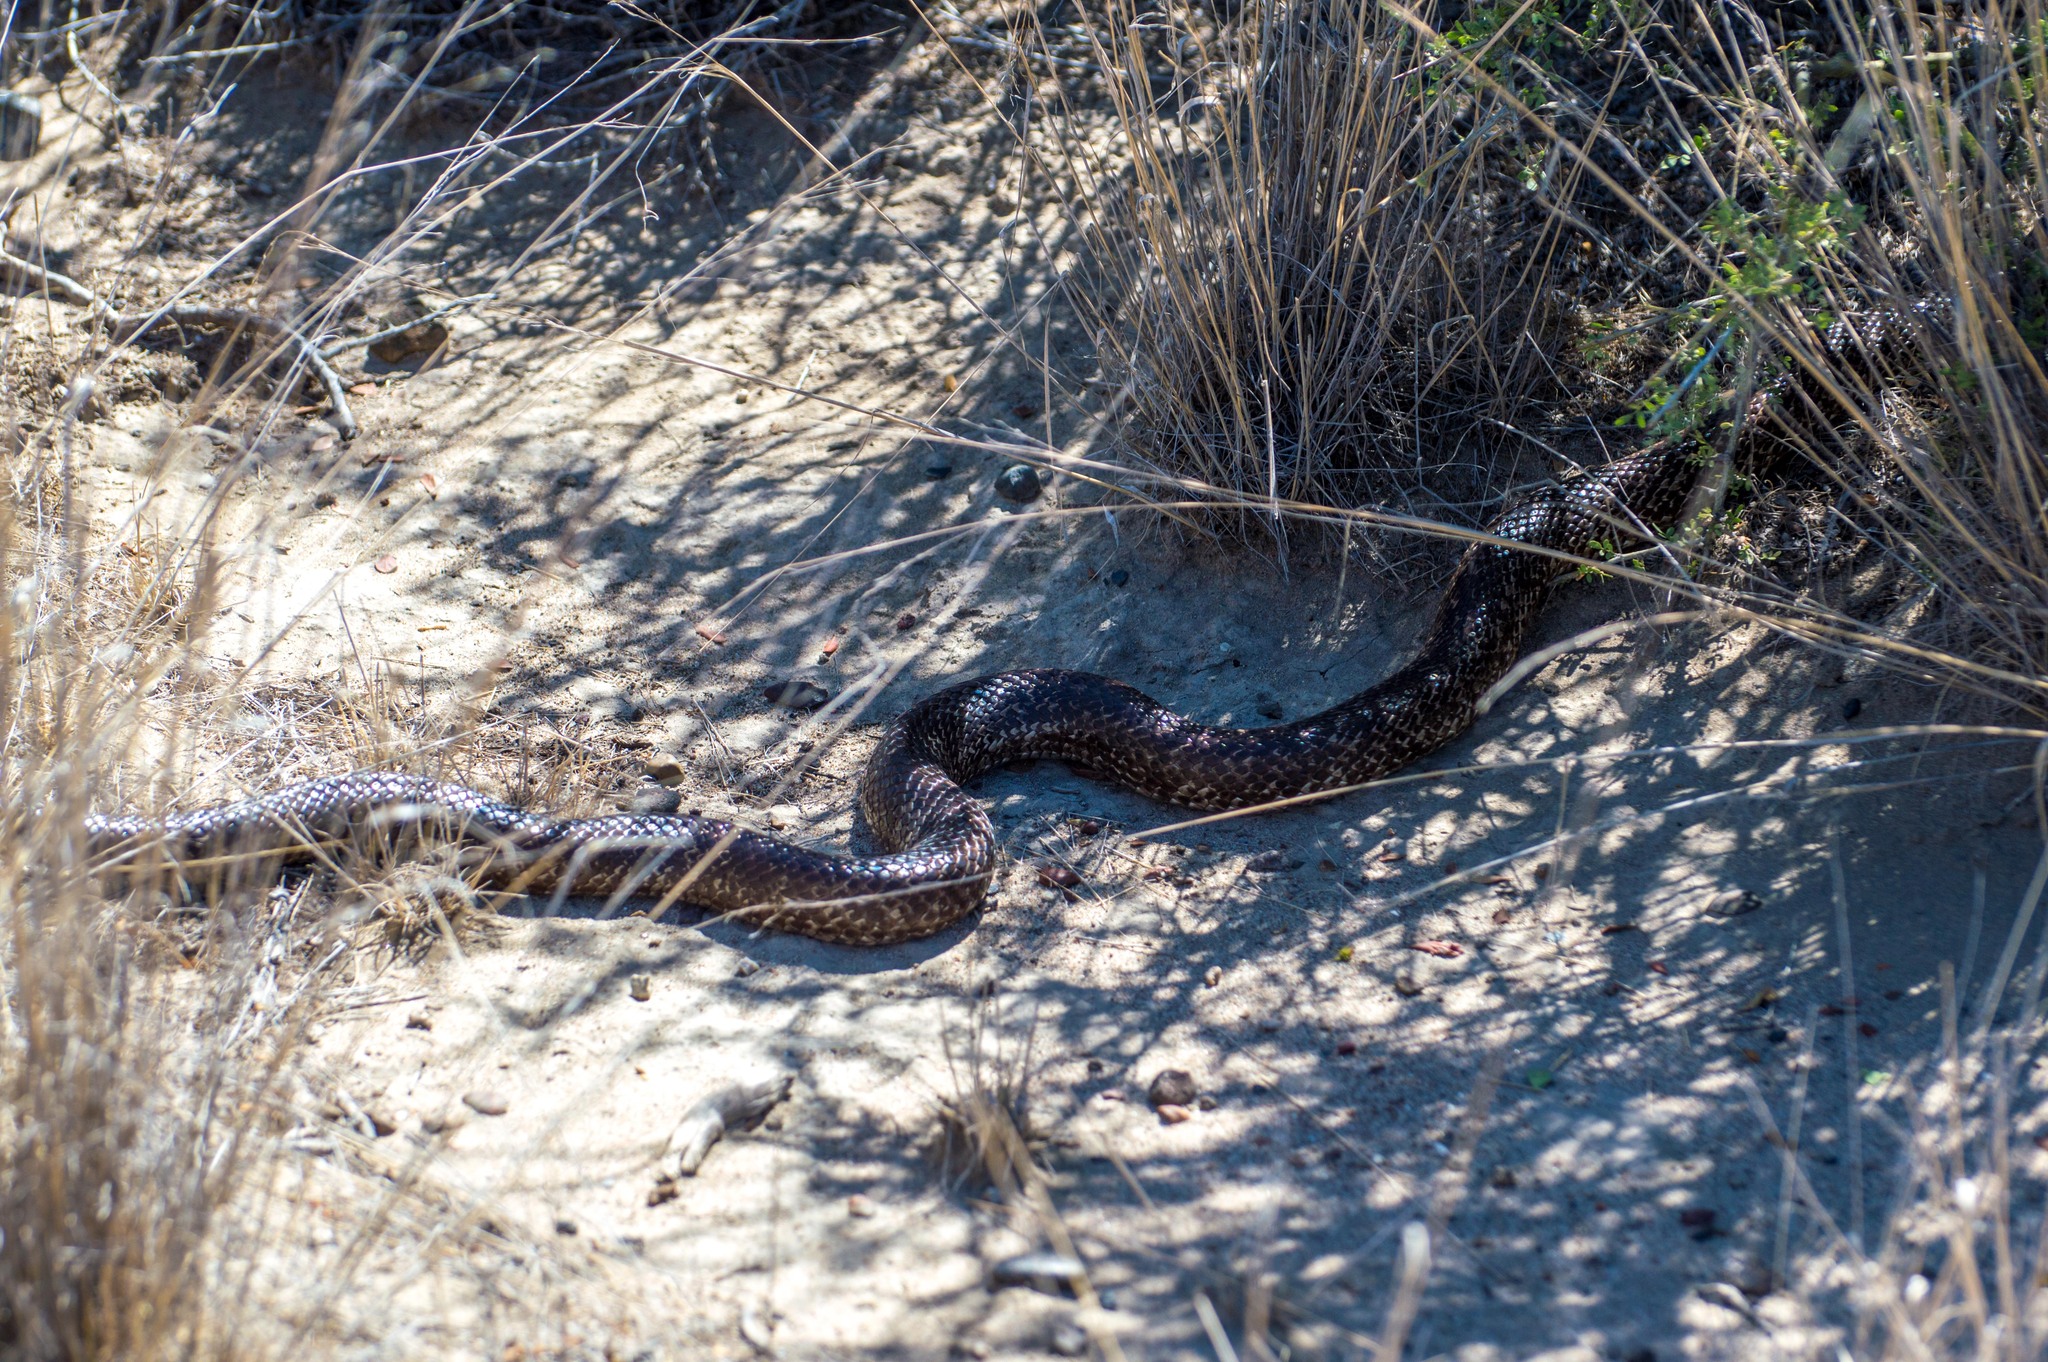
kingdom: Animalia
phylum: Chordata
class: Squamata
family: Colubridae
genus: Philodryas
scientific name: Philodryas trilineata
